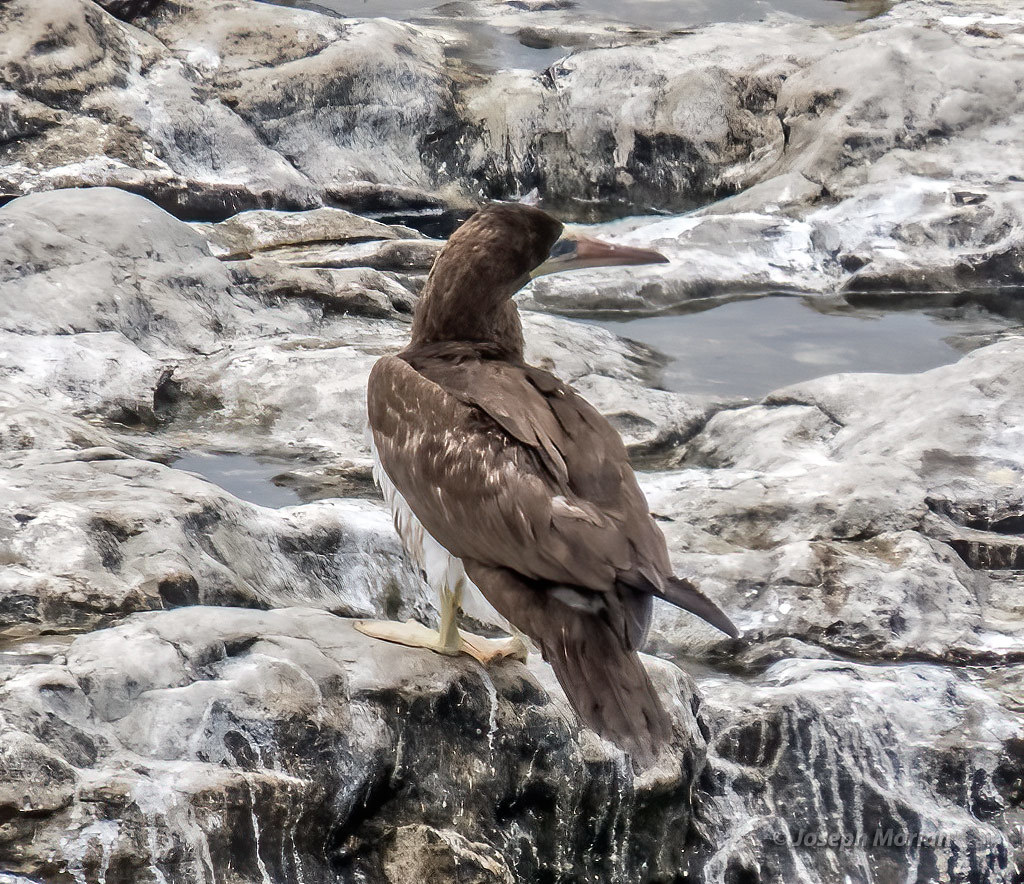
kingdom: Animalia
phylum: Chordata
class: Aves
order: Suliformes
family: Sulidae
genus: Sula
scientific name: Sula leucogaster
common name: Brown booby
